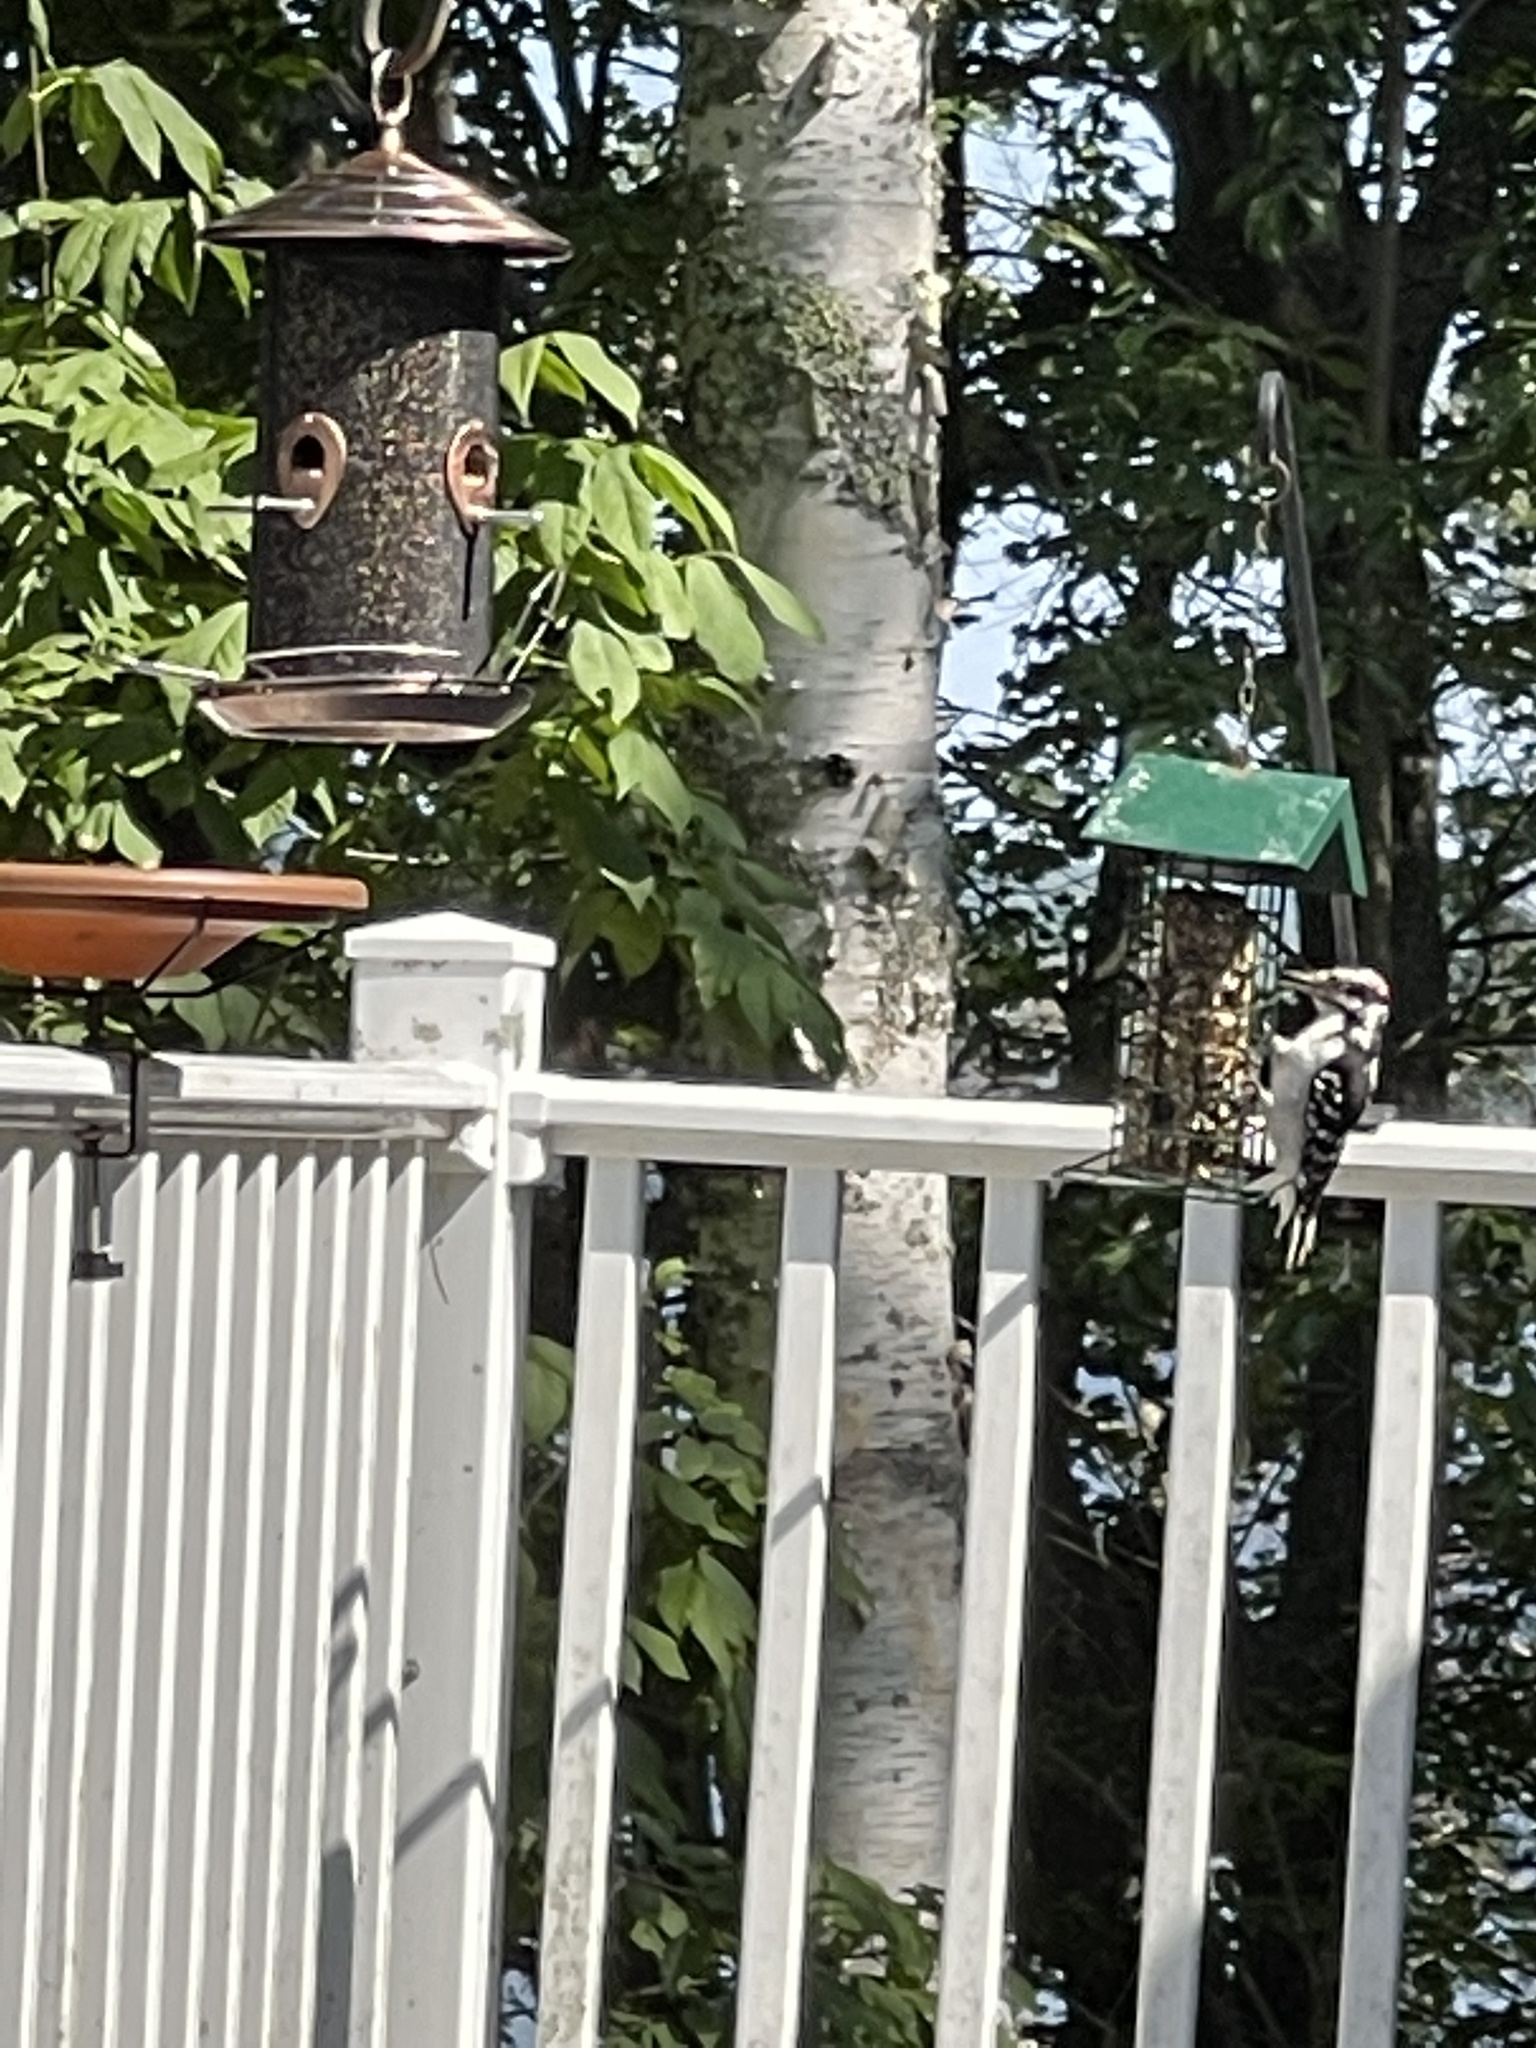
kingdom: Animalia
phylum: Chordata
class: Aves
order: Piciformes
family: Picidae
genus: Leuconotopicus
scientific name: Leuconotopicus villosus
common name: Hairy woodpecker
